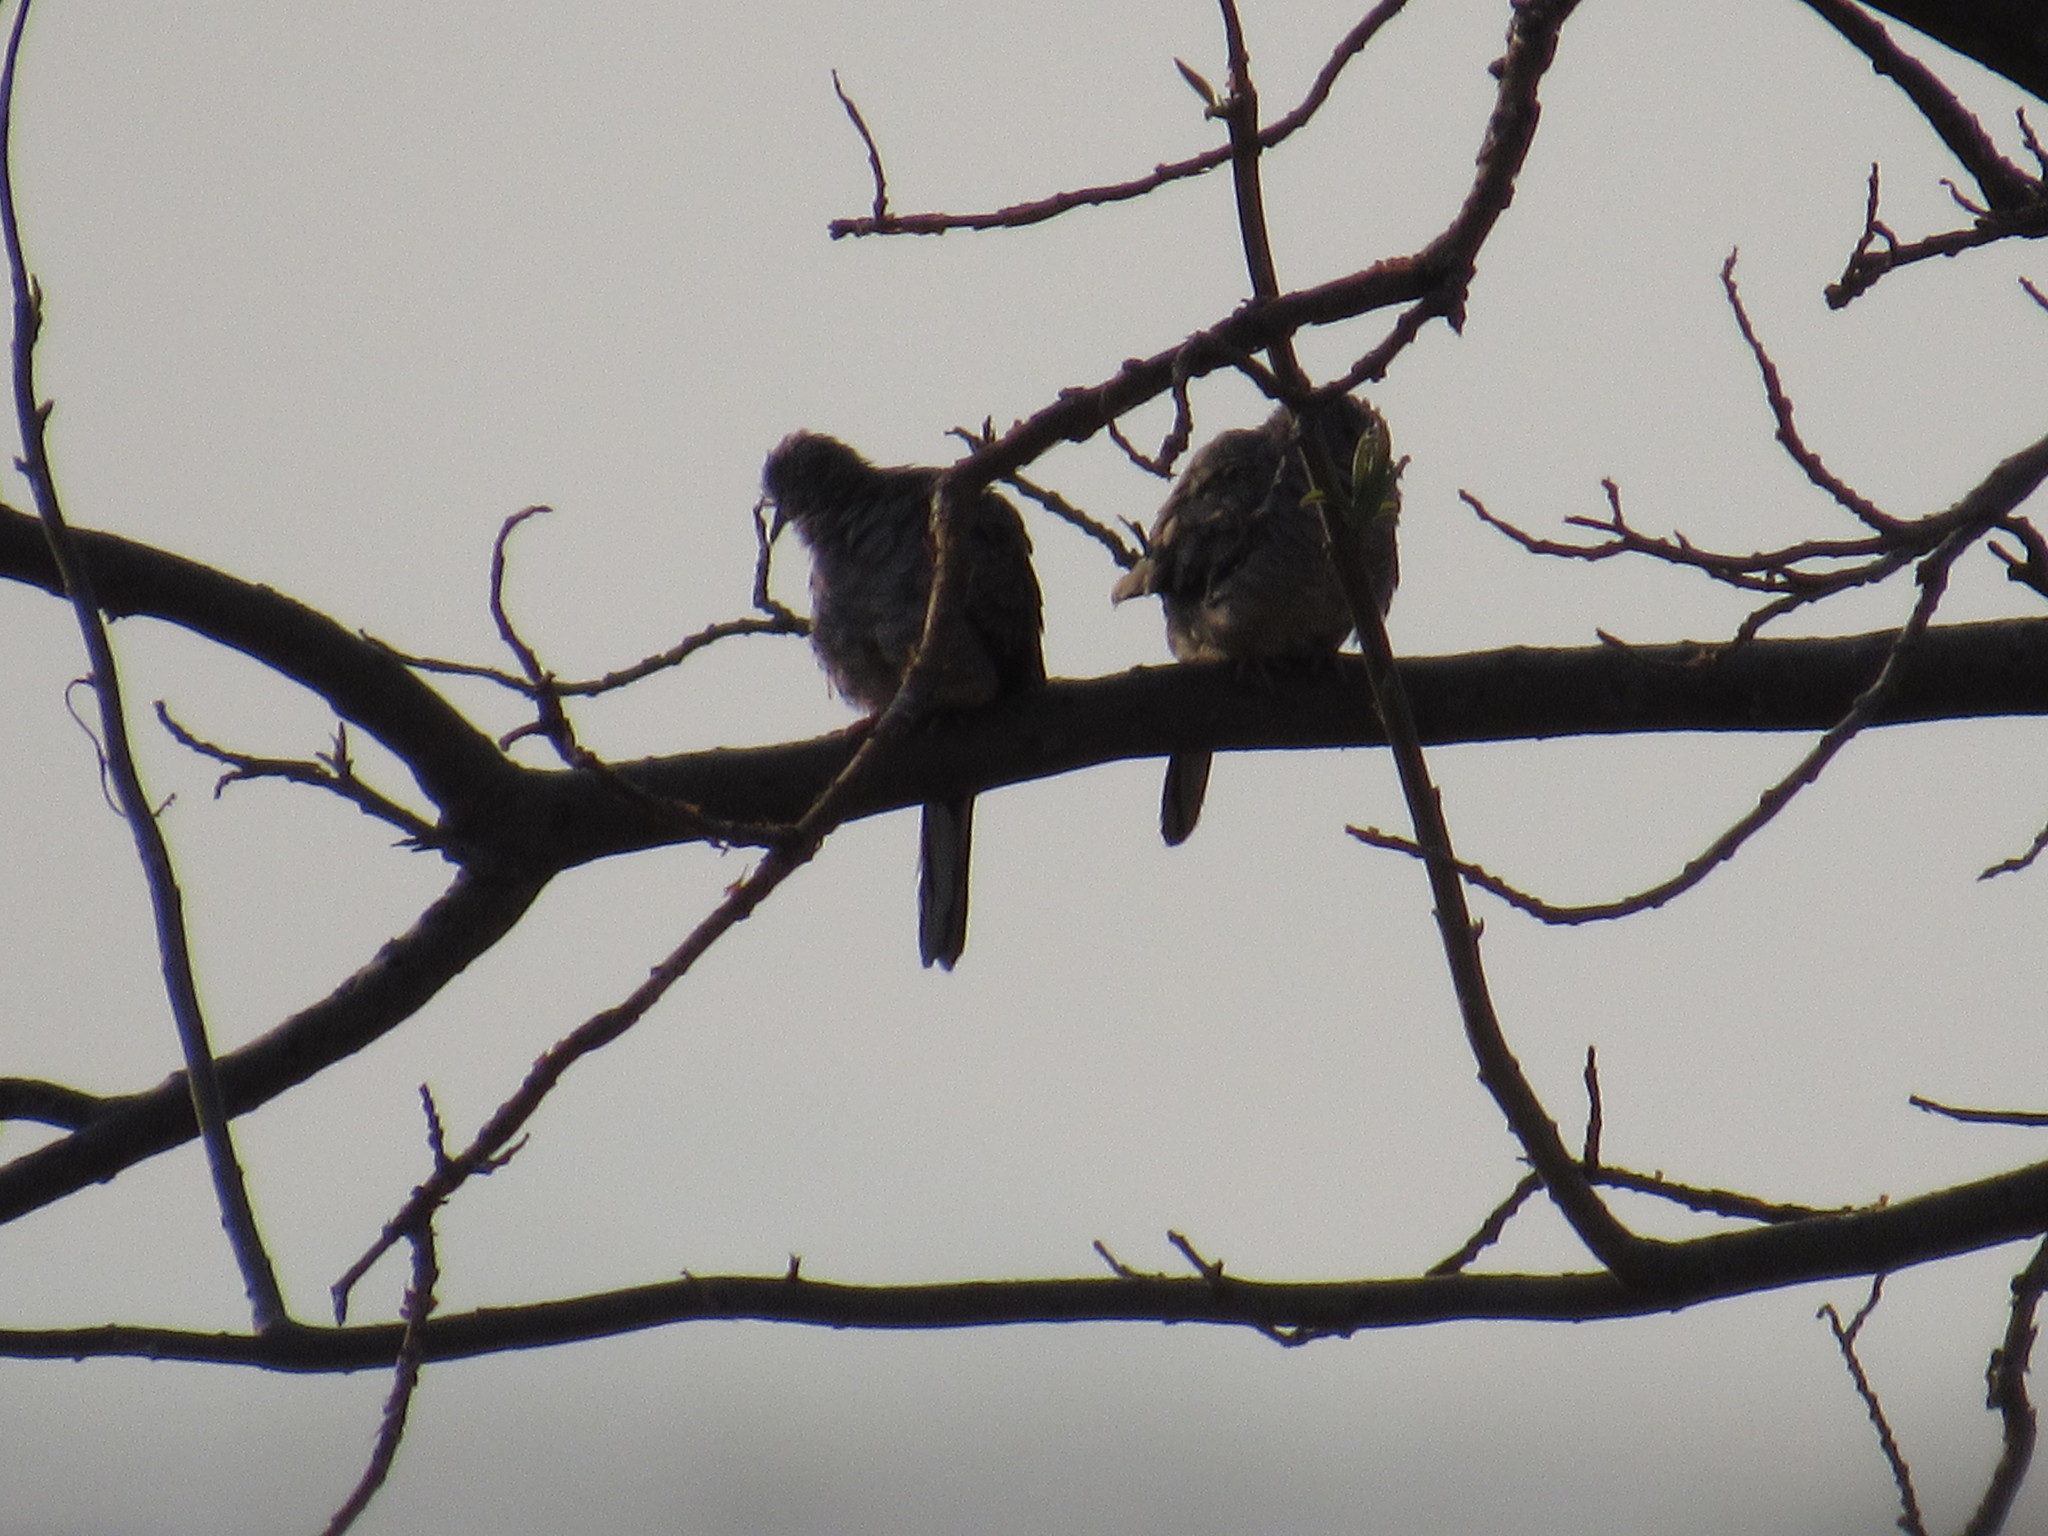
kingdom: Animalia
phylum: Chordata
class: Aves
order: Columbiformes
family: Columbidae
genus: Columbina
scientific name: Columbina inca
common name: Inca dove
